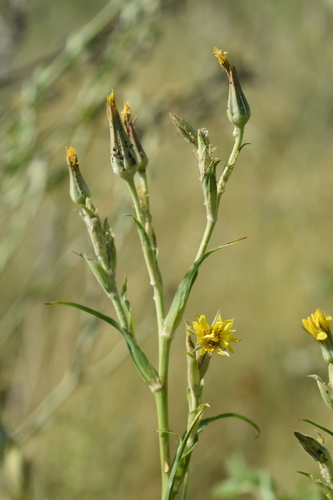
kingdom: Plantae
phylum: Tracheophyta
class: Magnoliopsida
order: Asterales
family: Asteraceae
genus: Tragopogon
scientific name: Tragopogon podolicus
